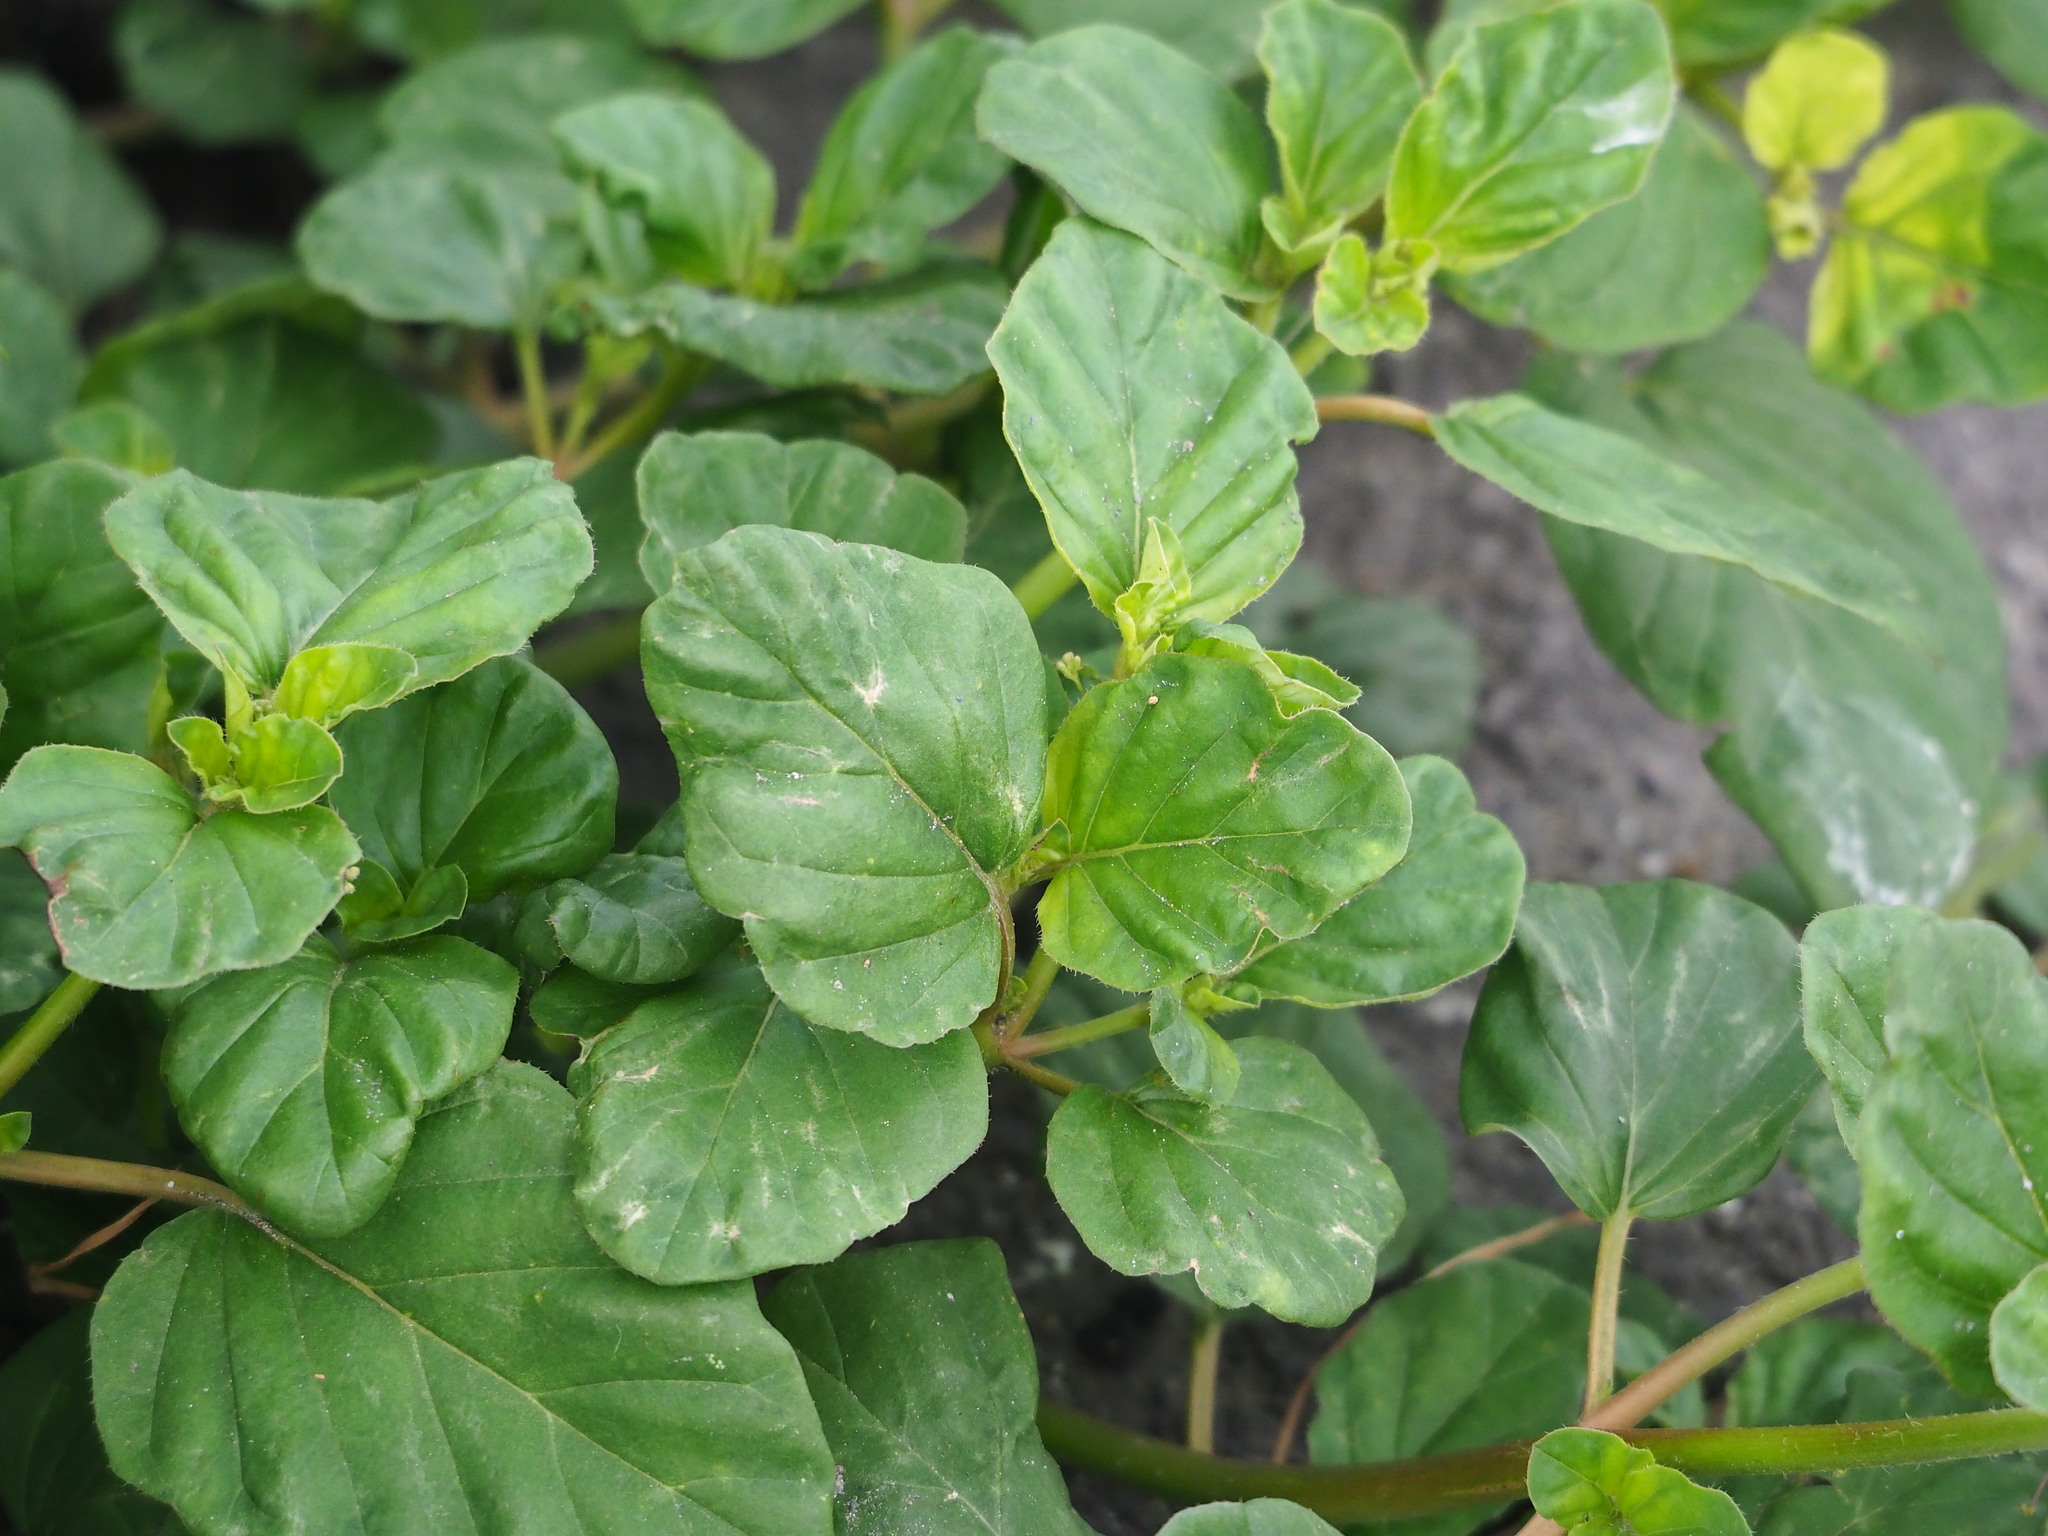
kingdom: Plantae
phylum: Tracheophyta
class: Magnoliopsida
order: Caryophyllales
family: Nyctaginaceae
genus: Boerhavia
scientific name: Boerhavia coccinea
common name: Scarlet spiderling
